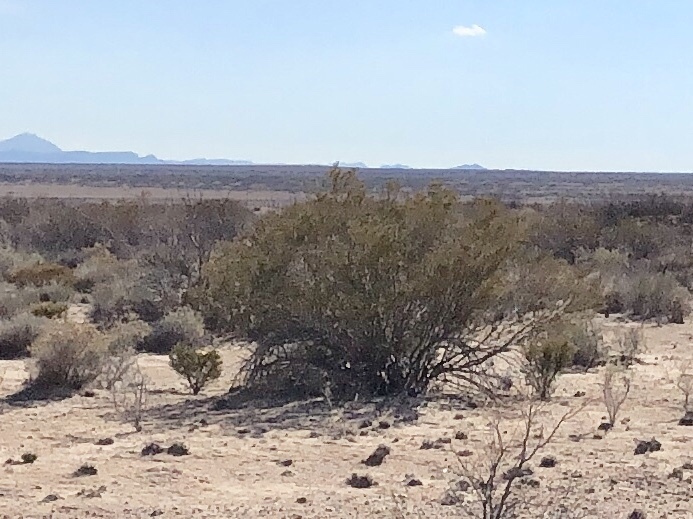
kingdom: Plantae
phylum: Tracheophyta
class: Magnoliopsida
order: Zygophyllales
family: Zygophyllaceae
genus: Larrea
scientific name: Larrea tridentata
